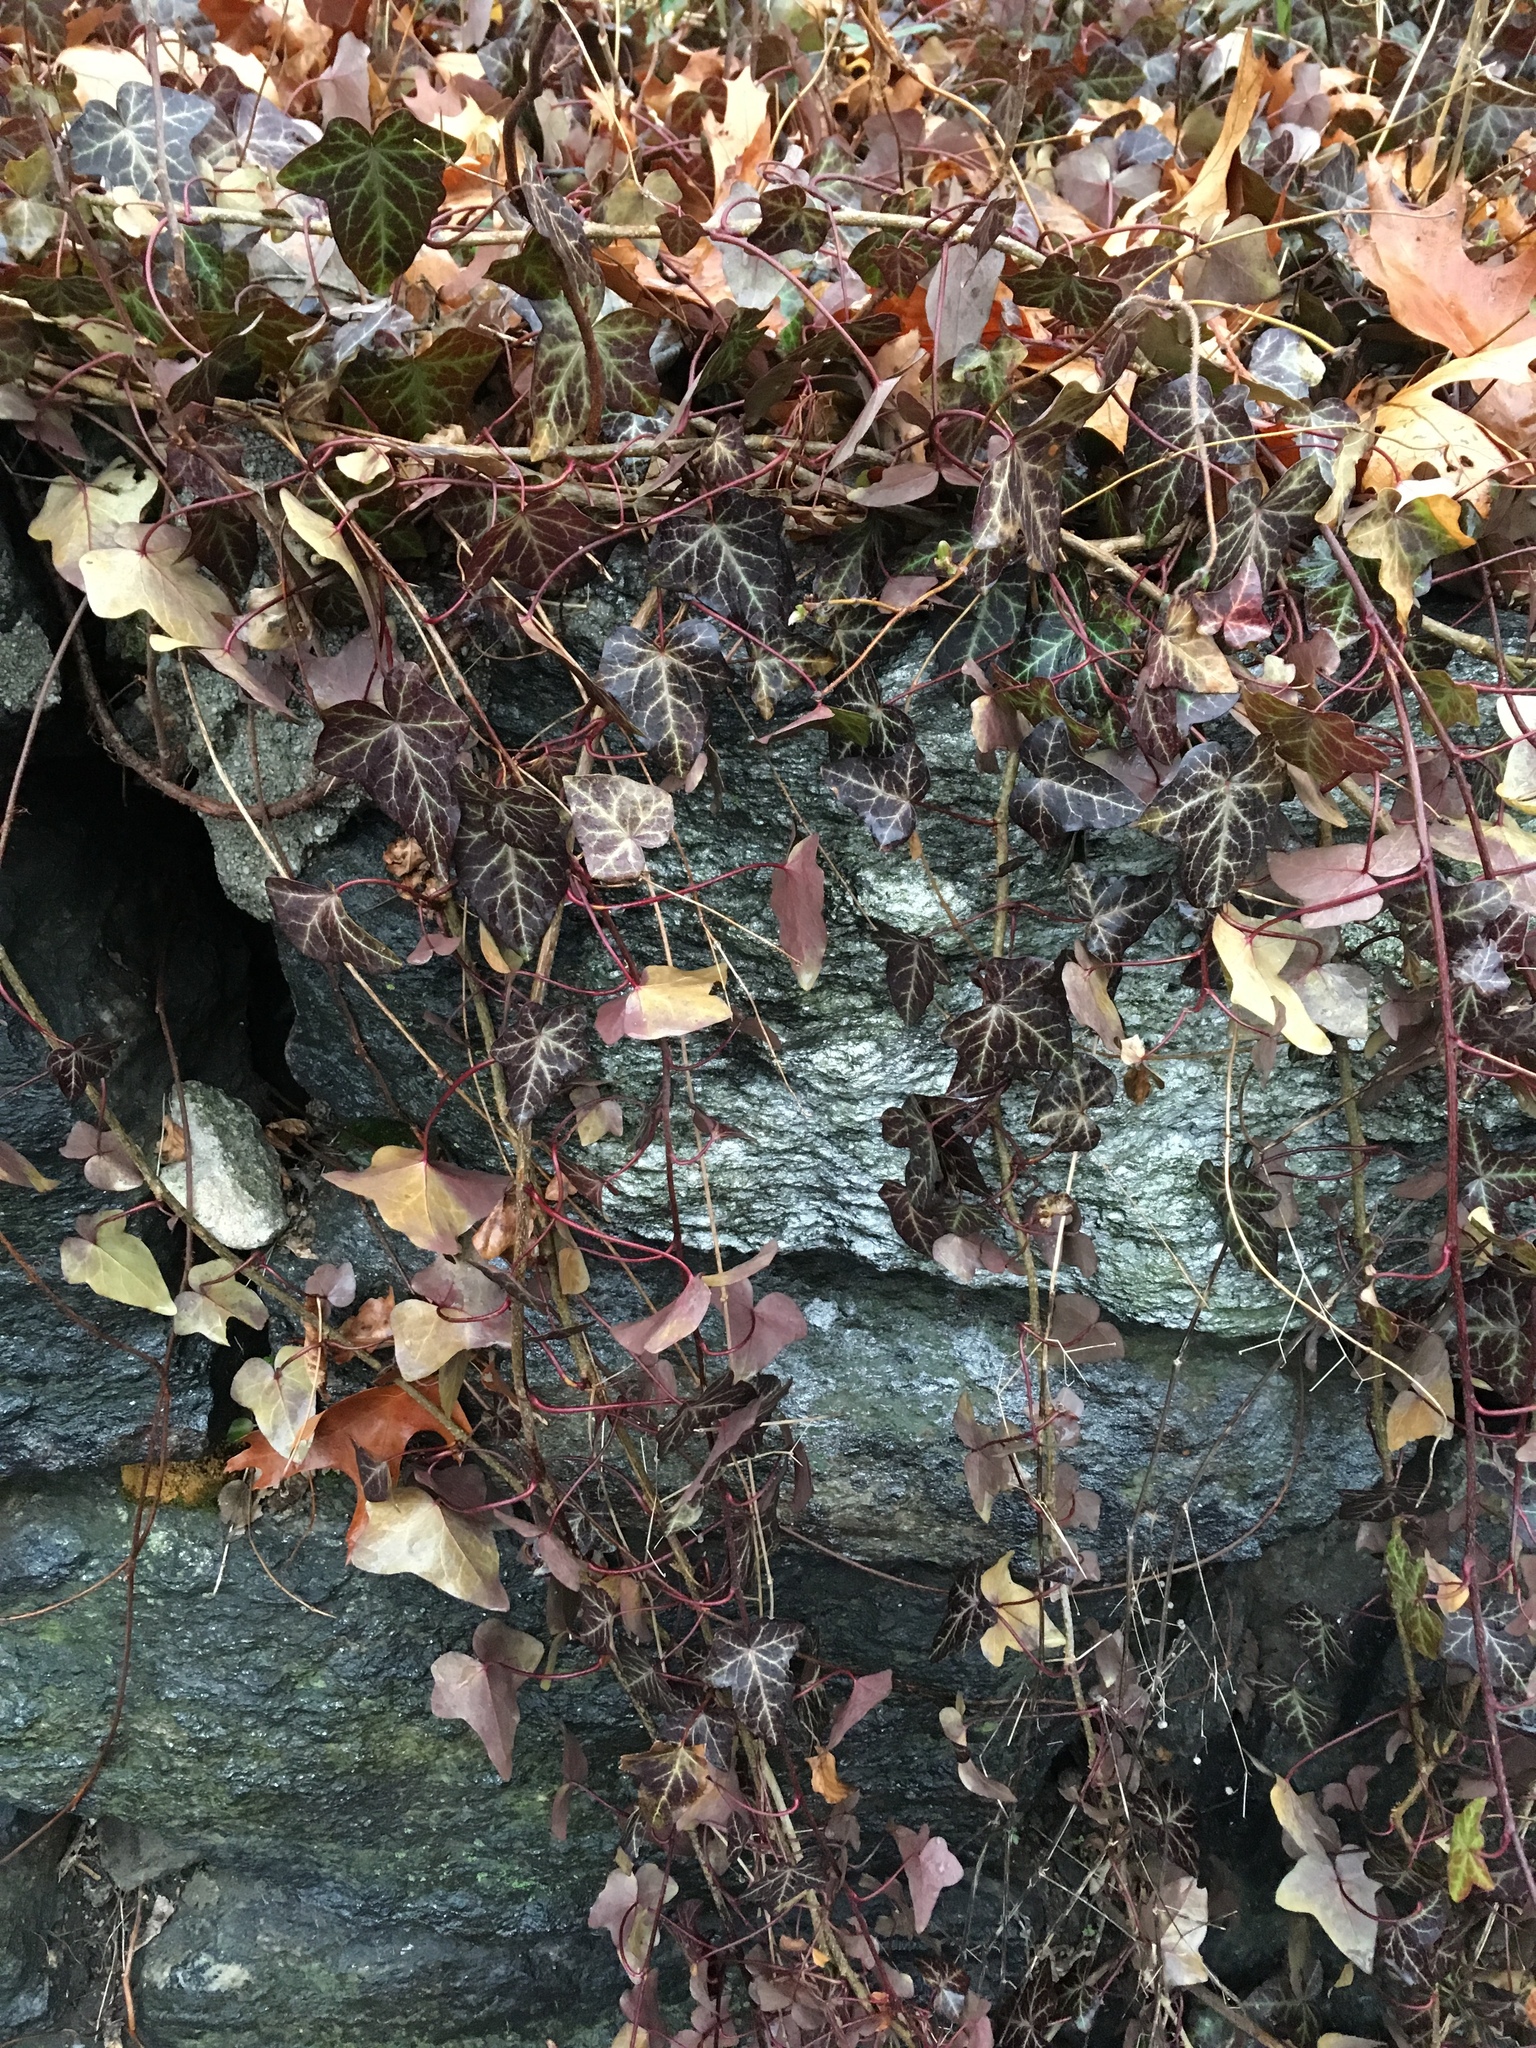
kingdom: Plantae
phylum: Tracheophyta
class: Magnoliopsida
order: Apiales
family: Araliaceae
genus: Hedera
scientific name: Hedera helix
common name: Ivy
